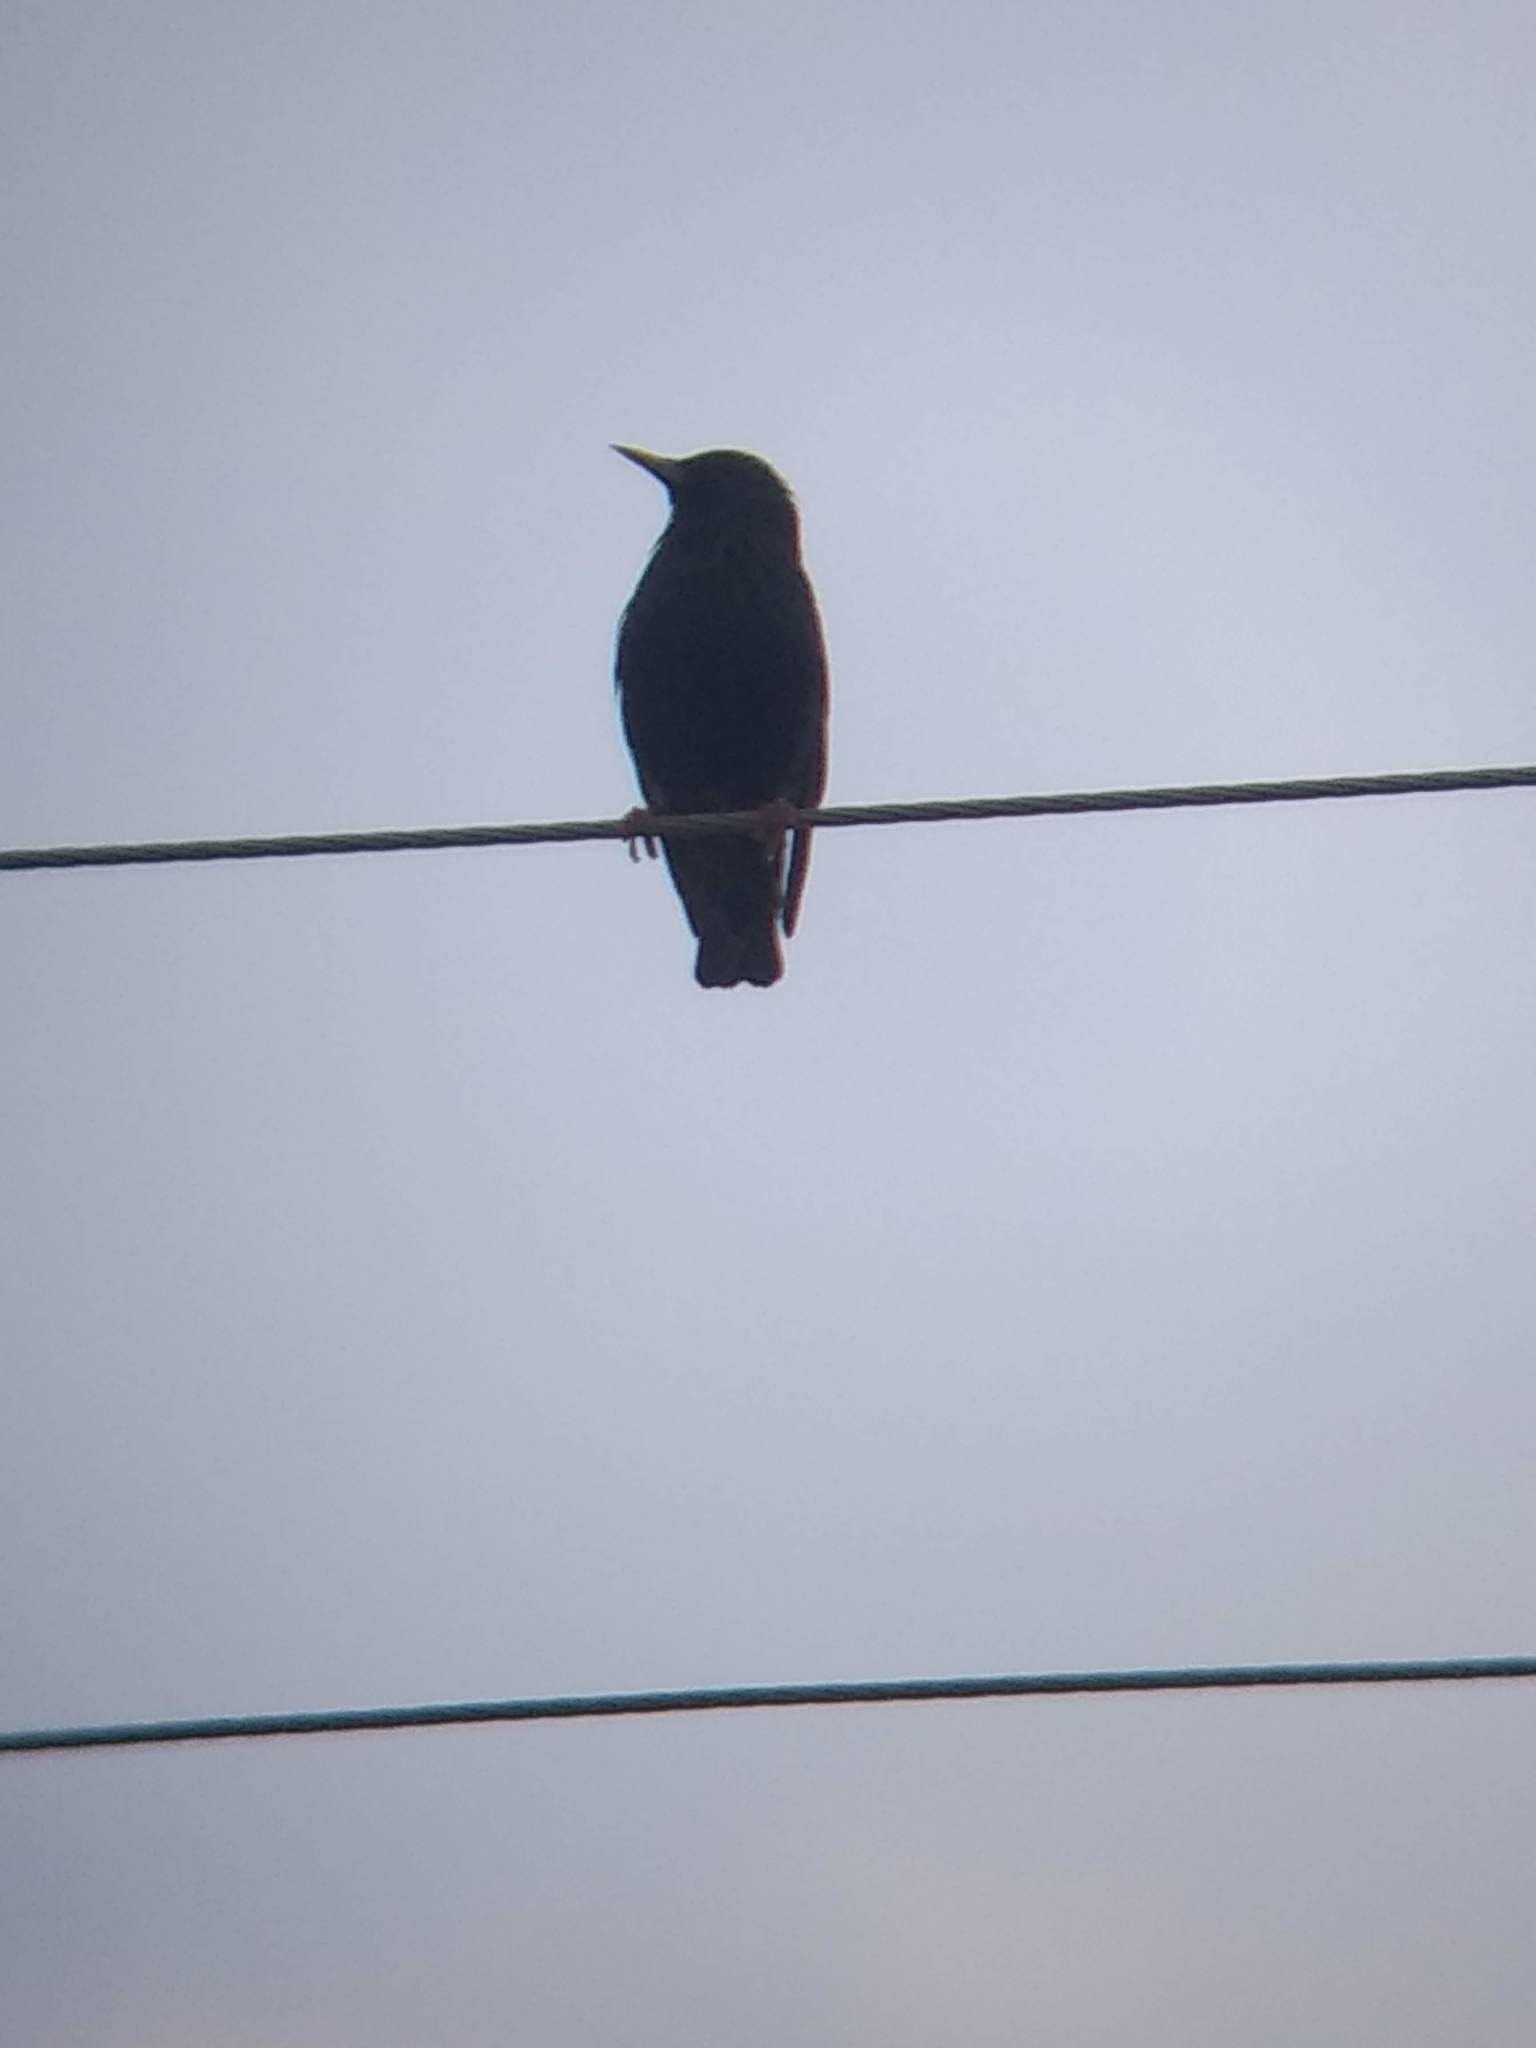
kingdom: Animalia
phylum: Chordata
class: Aves
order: Passeriformes
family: Sturnidae
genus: Sturnus
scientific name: Sturnus vulgaris
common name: Common starling
